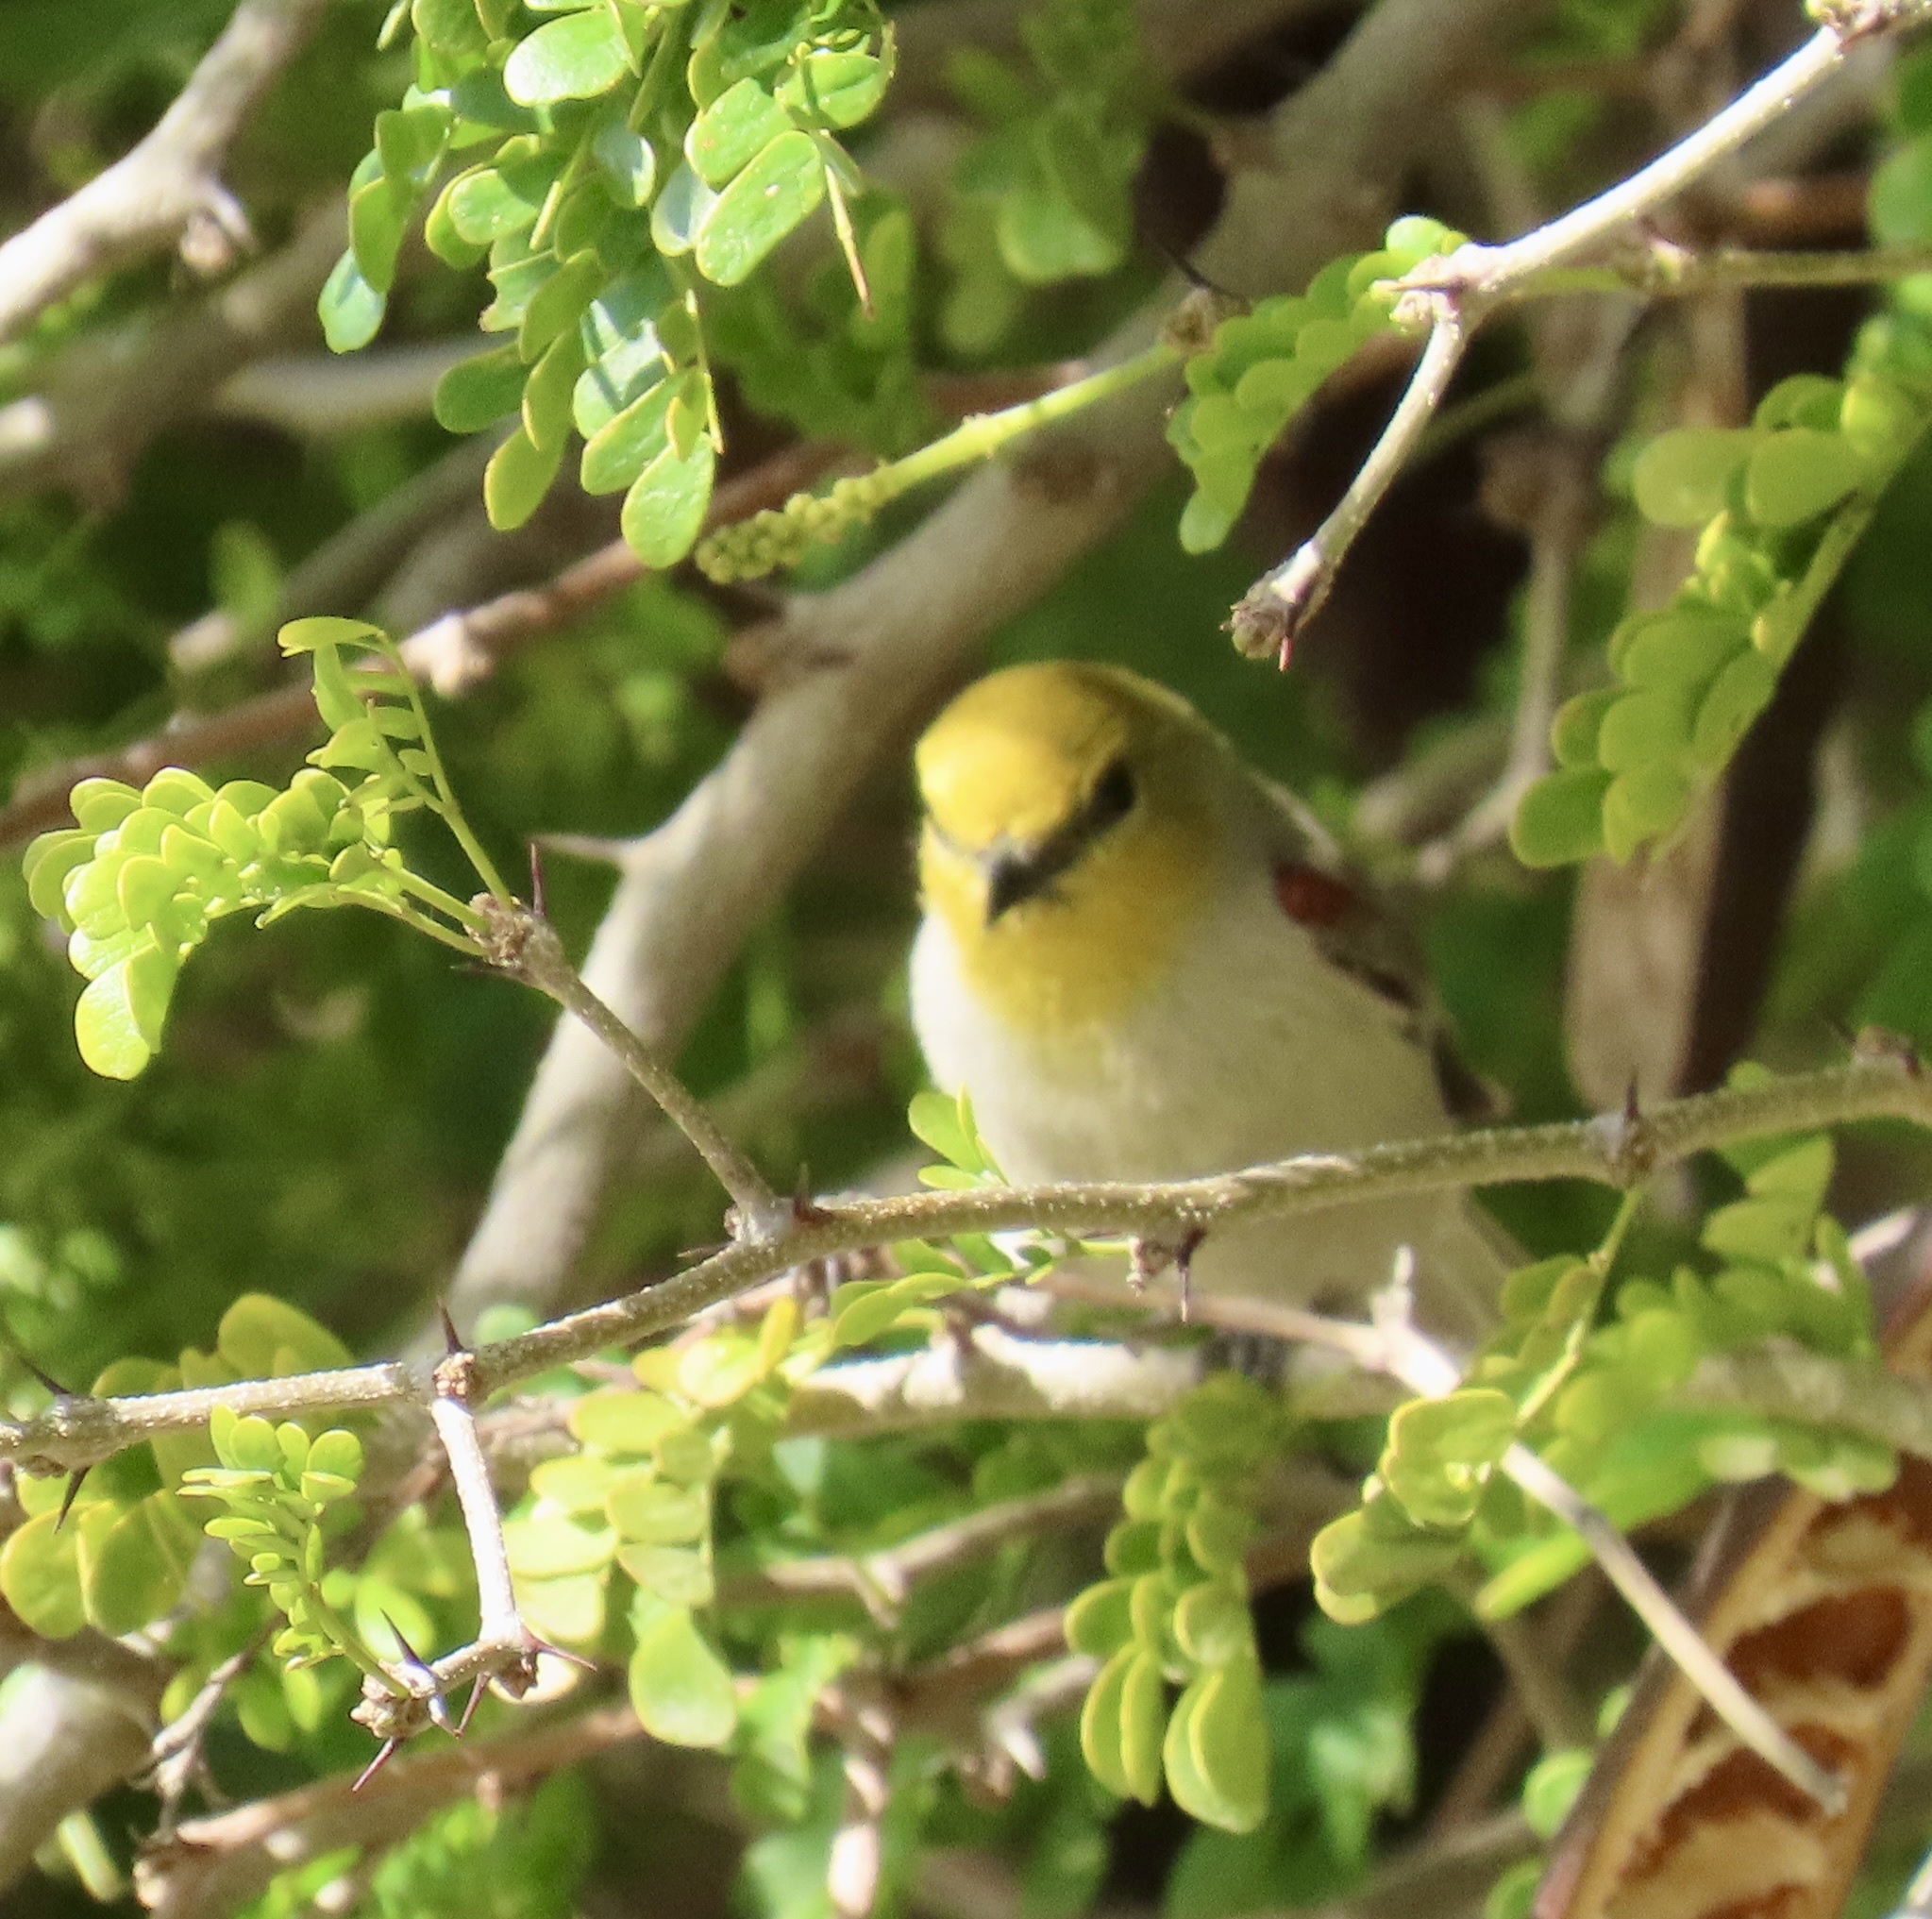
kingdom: Animalia
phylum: Chordata
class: Aves
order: Passeriformes
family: Remizidae
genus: Auriparus
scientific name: Auriparus flaviceps
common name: Verdin
